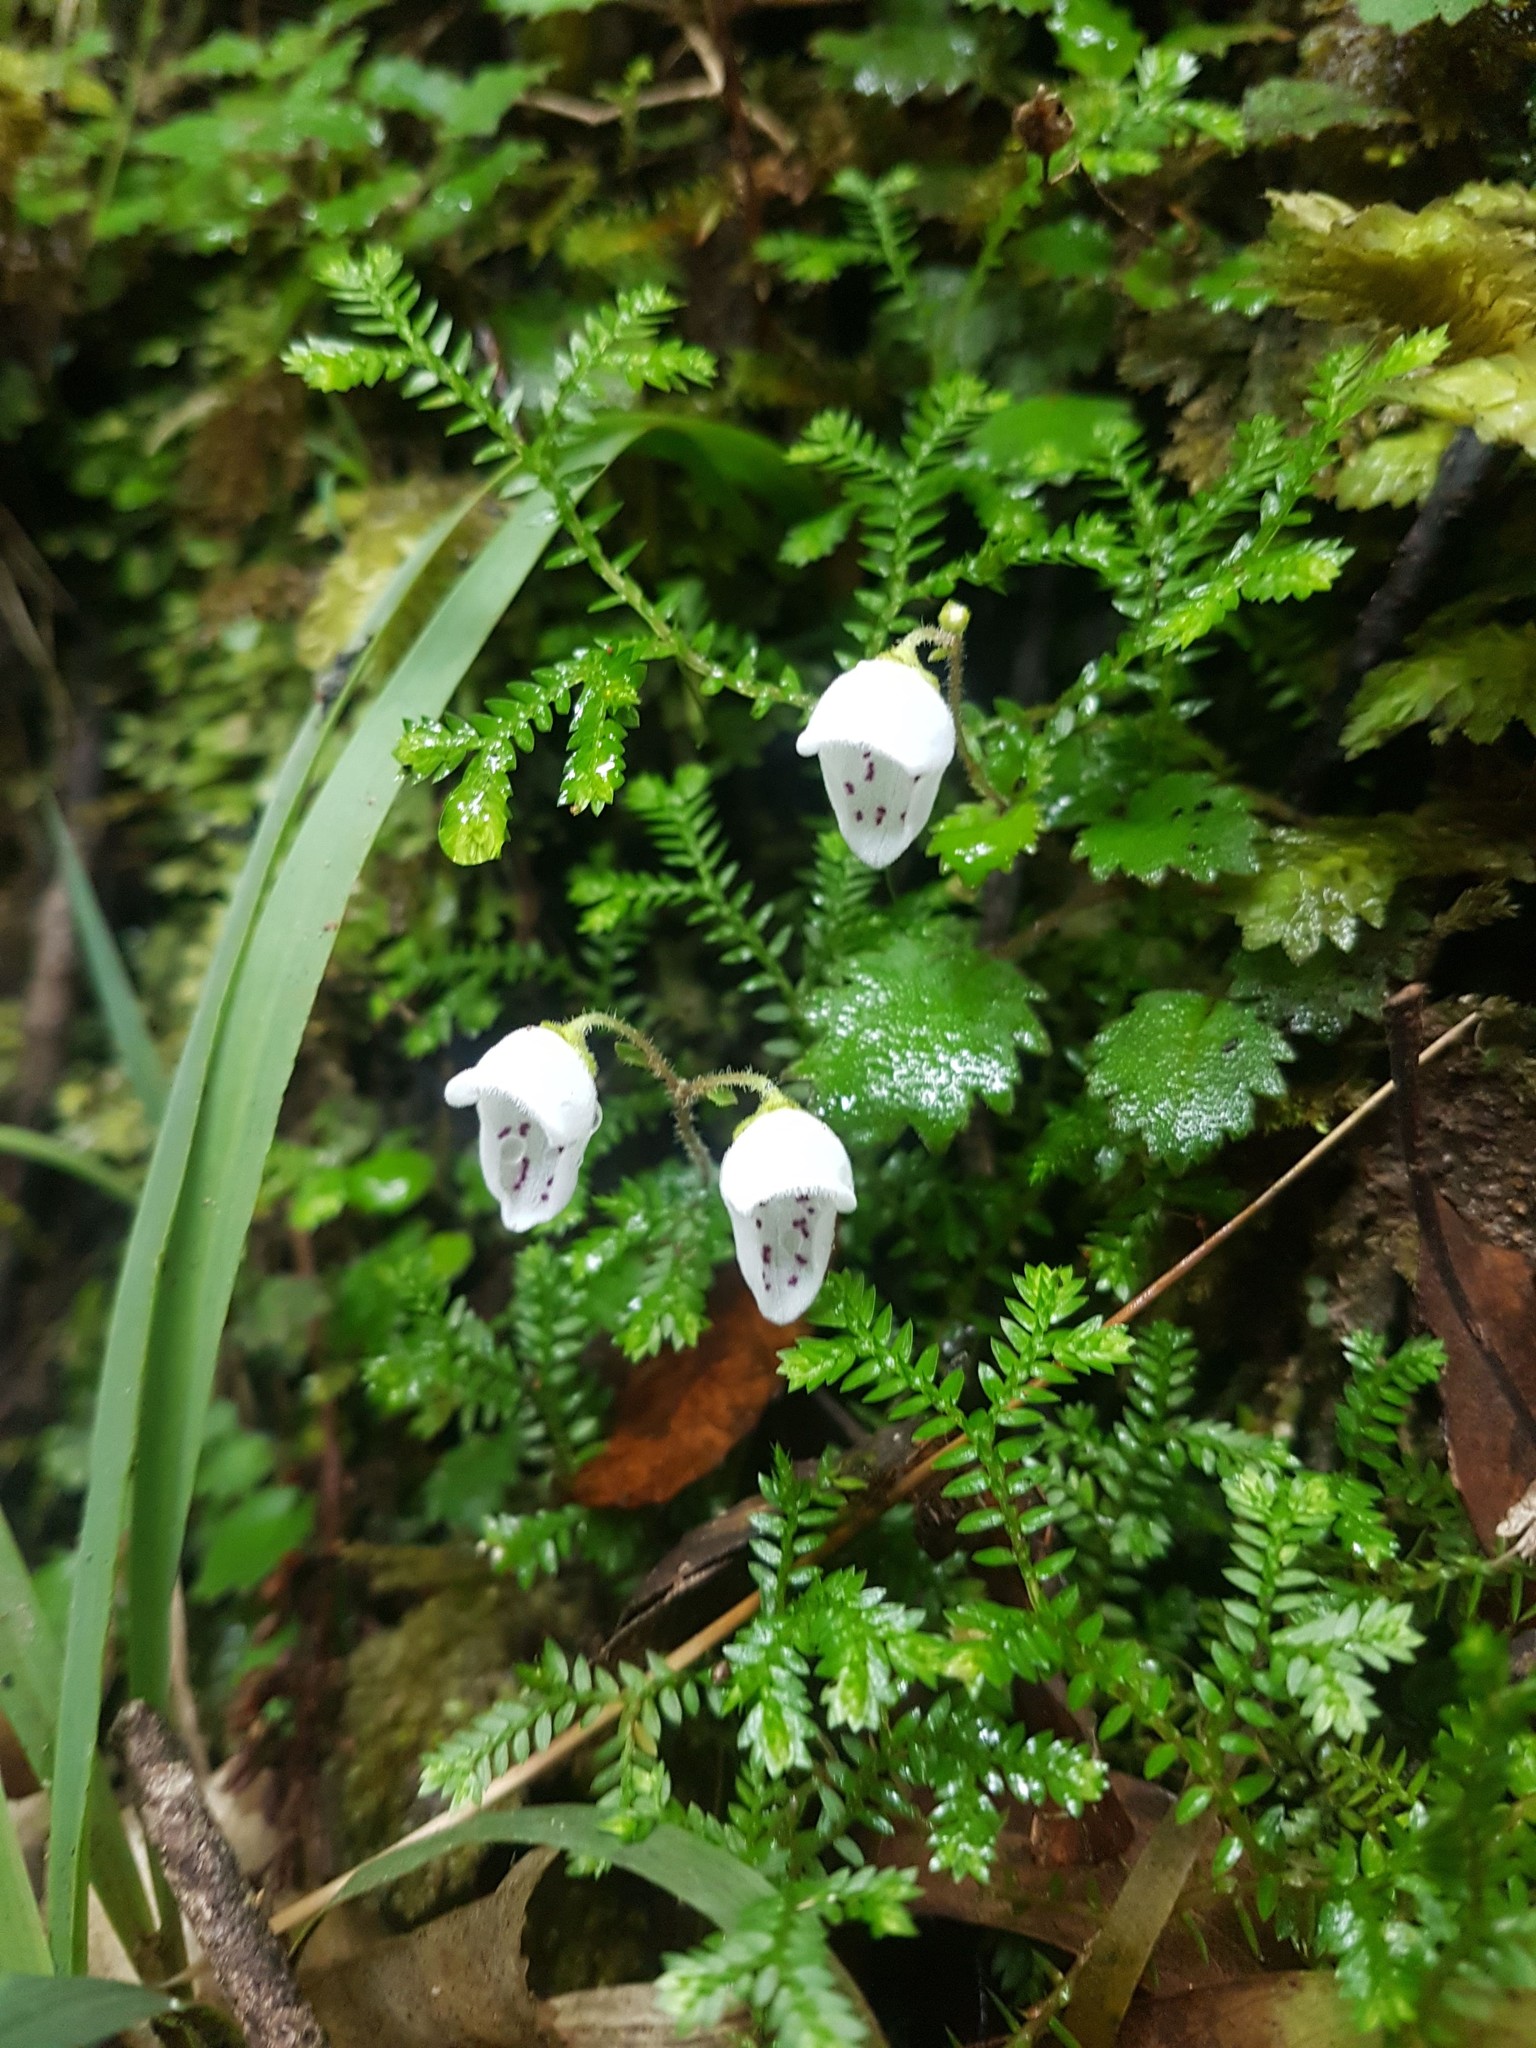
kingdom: Plantae
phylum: Tracheophyta
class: Magnoliopsida
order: Lamiales
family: Calceolariaceae
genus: Jovellana
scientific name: Jovellana repens
